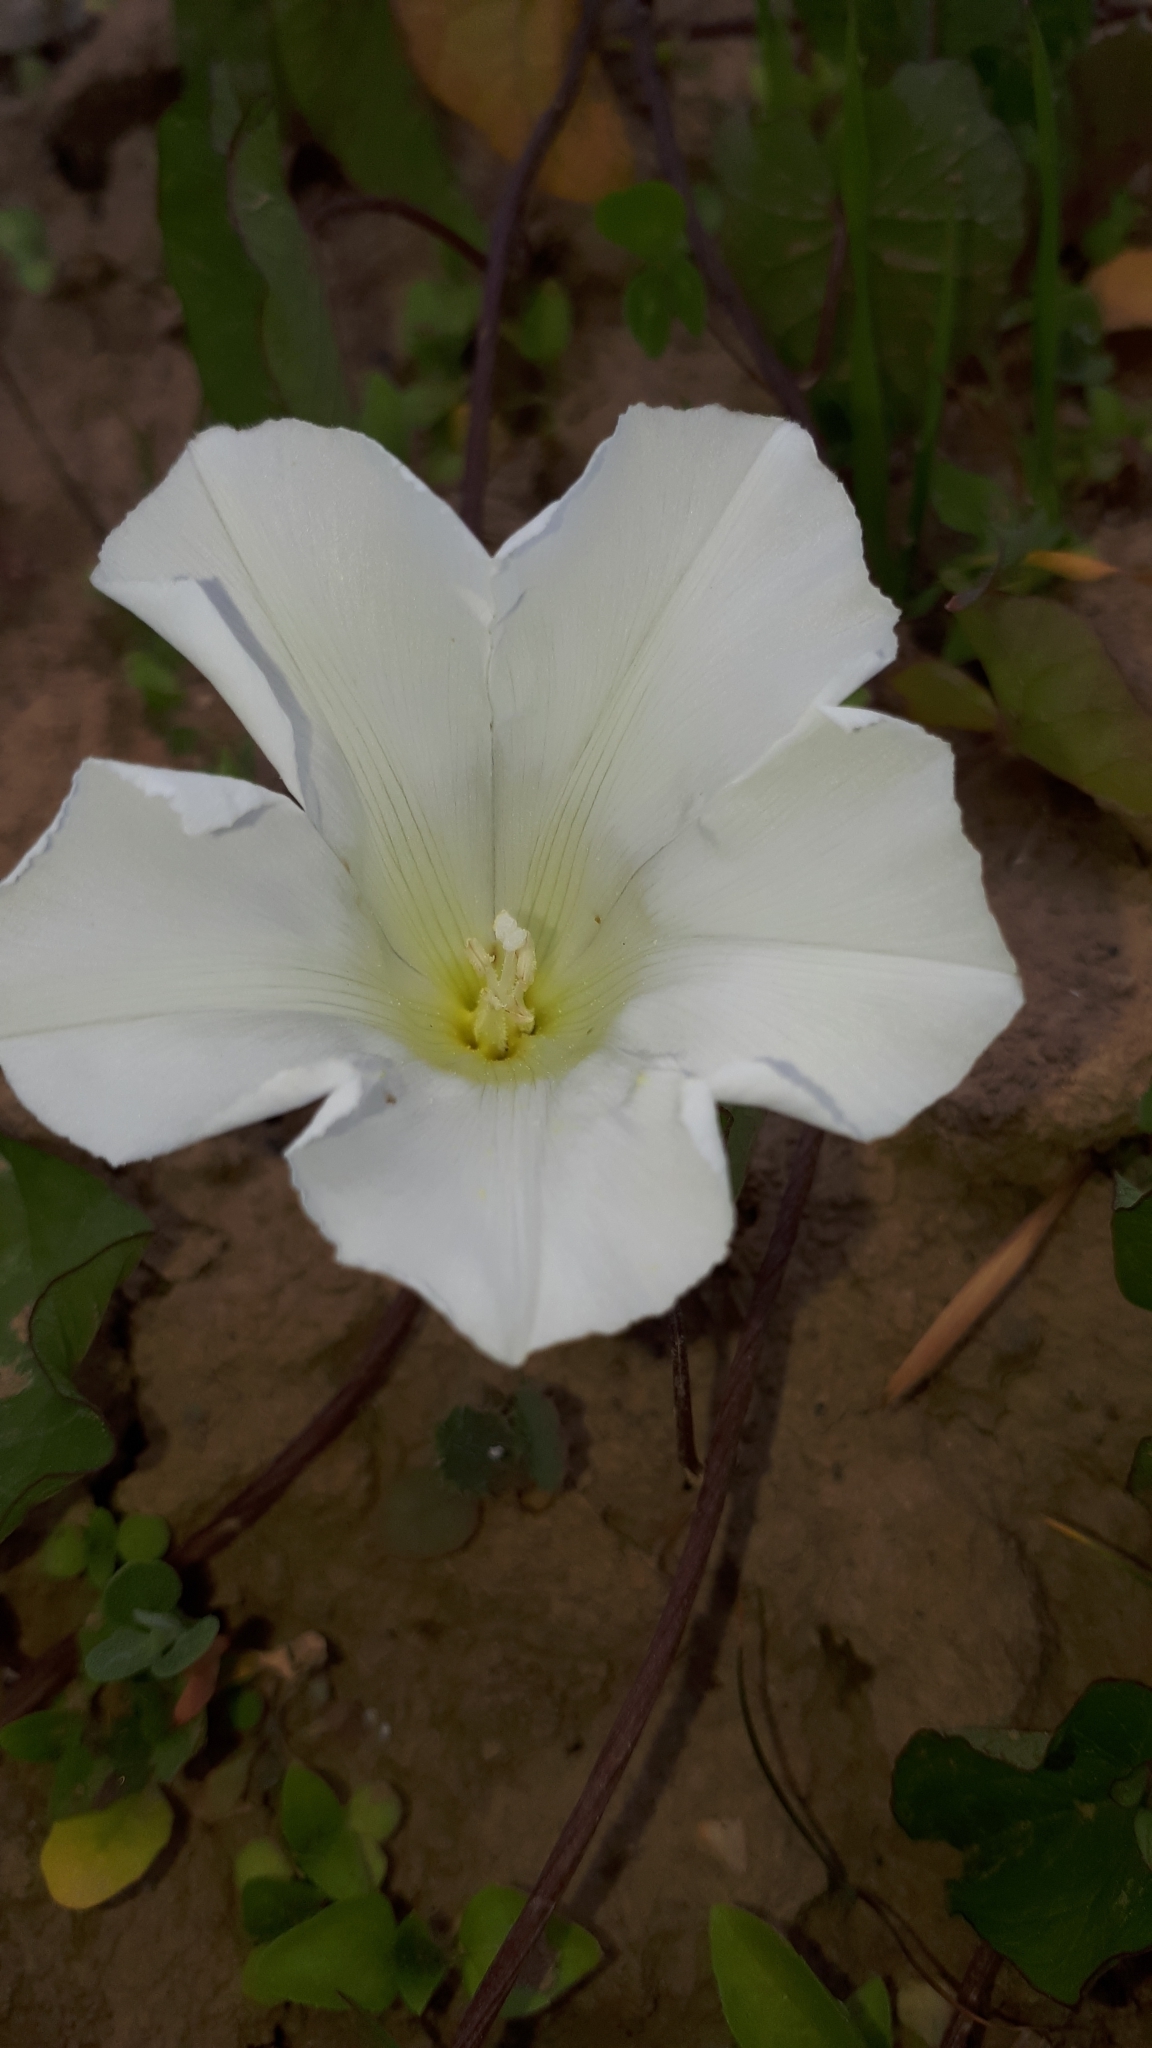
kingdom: Plantae
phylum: Tracheophyta
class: Magnoliopsida
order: Solanales
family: Convolvulaceae
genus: Calystegia
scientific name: Calystegia sepium
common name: Hedge bindweed
